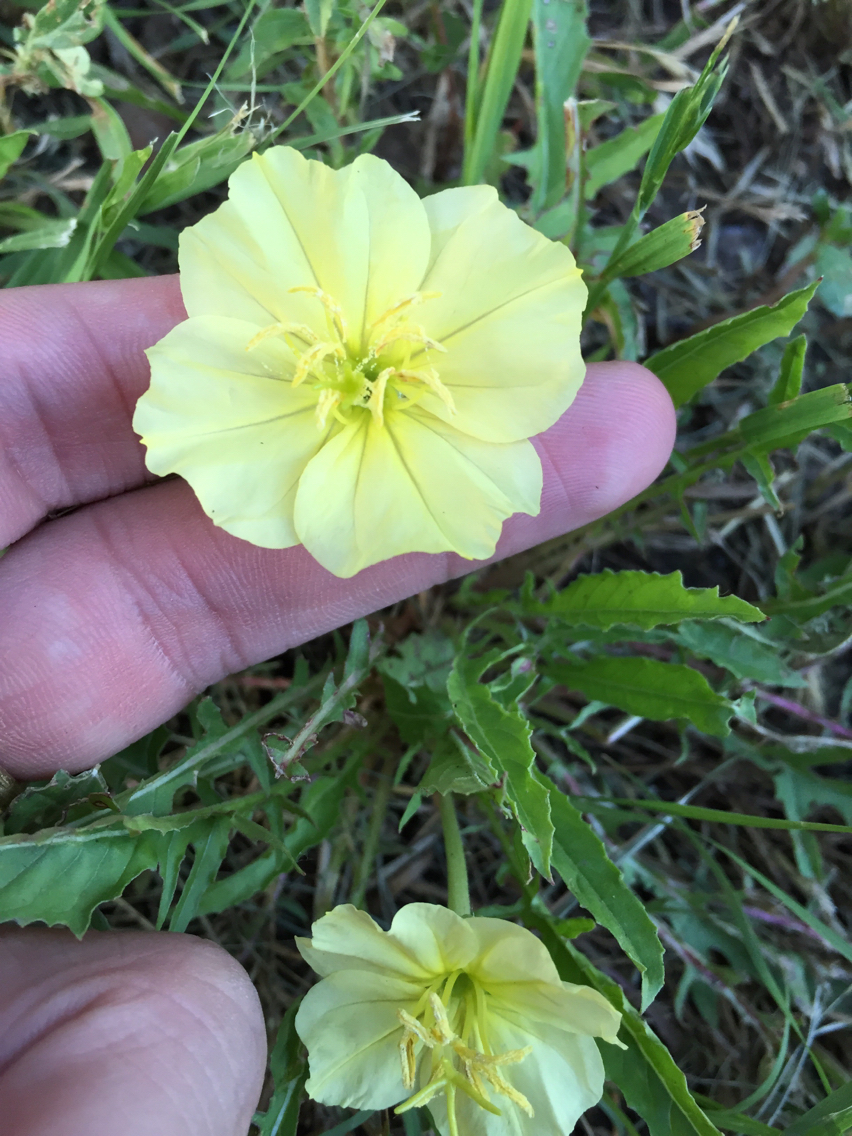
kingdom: Plantae
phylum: Tracheophyta
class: Magnoliopsida
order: Myrtales
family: Onagraceae
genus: Oenothera
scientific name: Oenothera triloba
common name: Sessile evening-primrose
